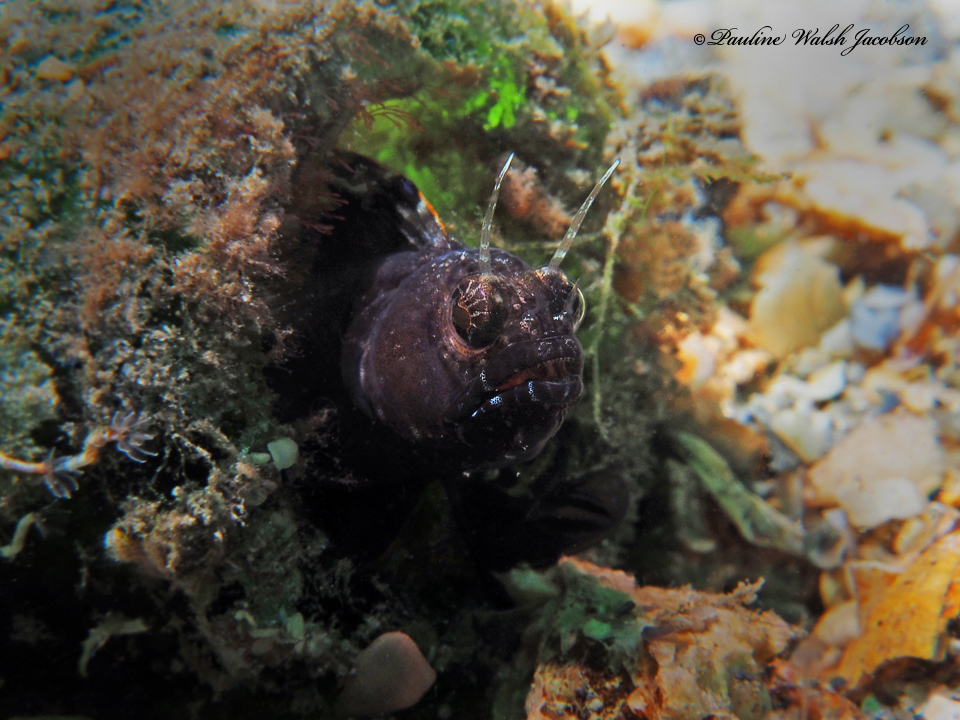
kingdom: Animalia
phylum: Chordata
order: Perciformes
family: Chaenopsidae
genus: Emblemaria
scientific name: Emblemaria pandionis
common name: Sailfin blenny
